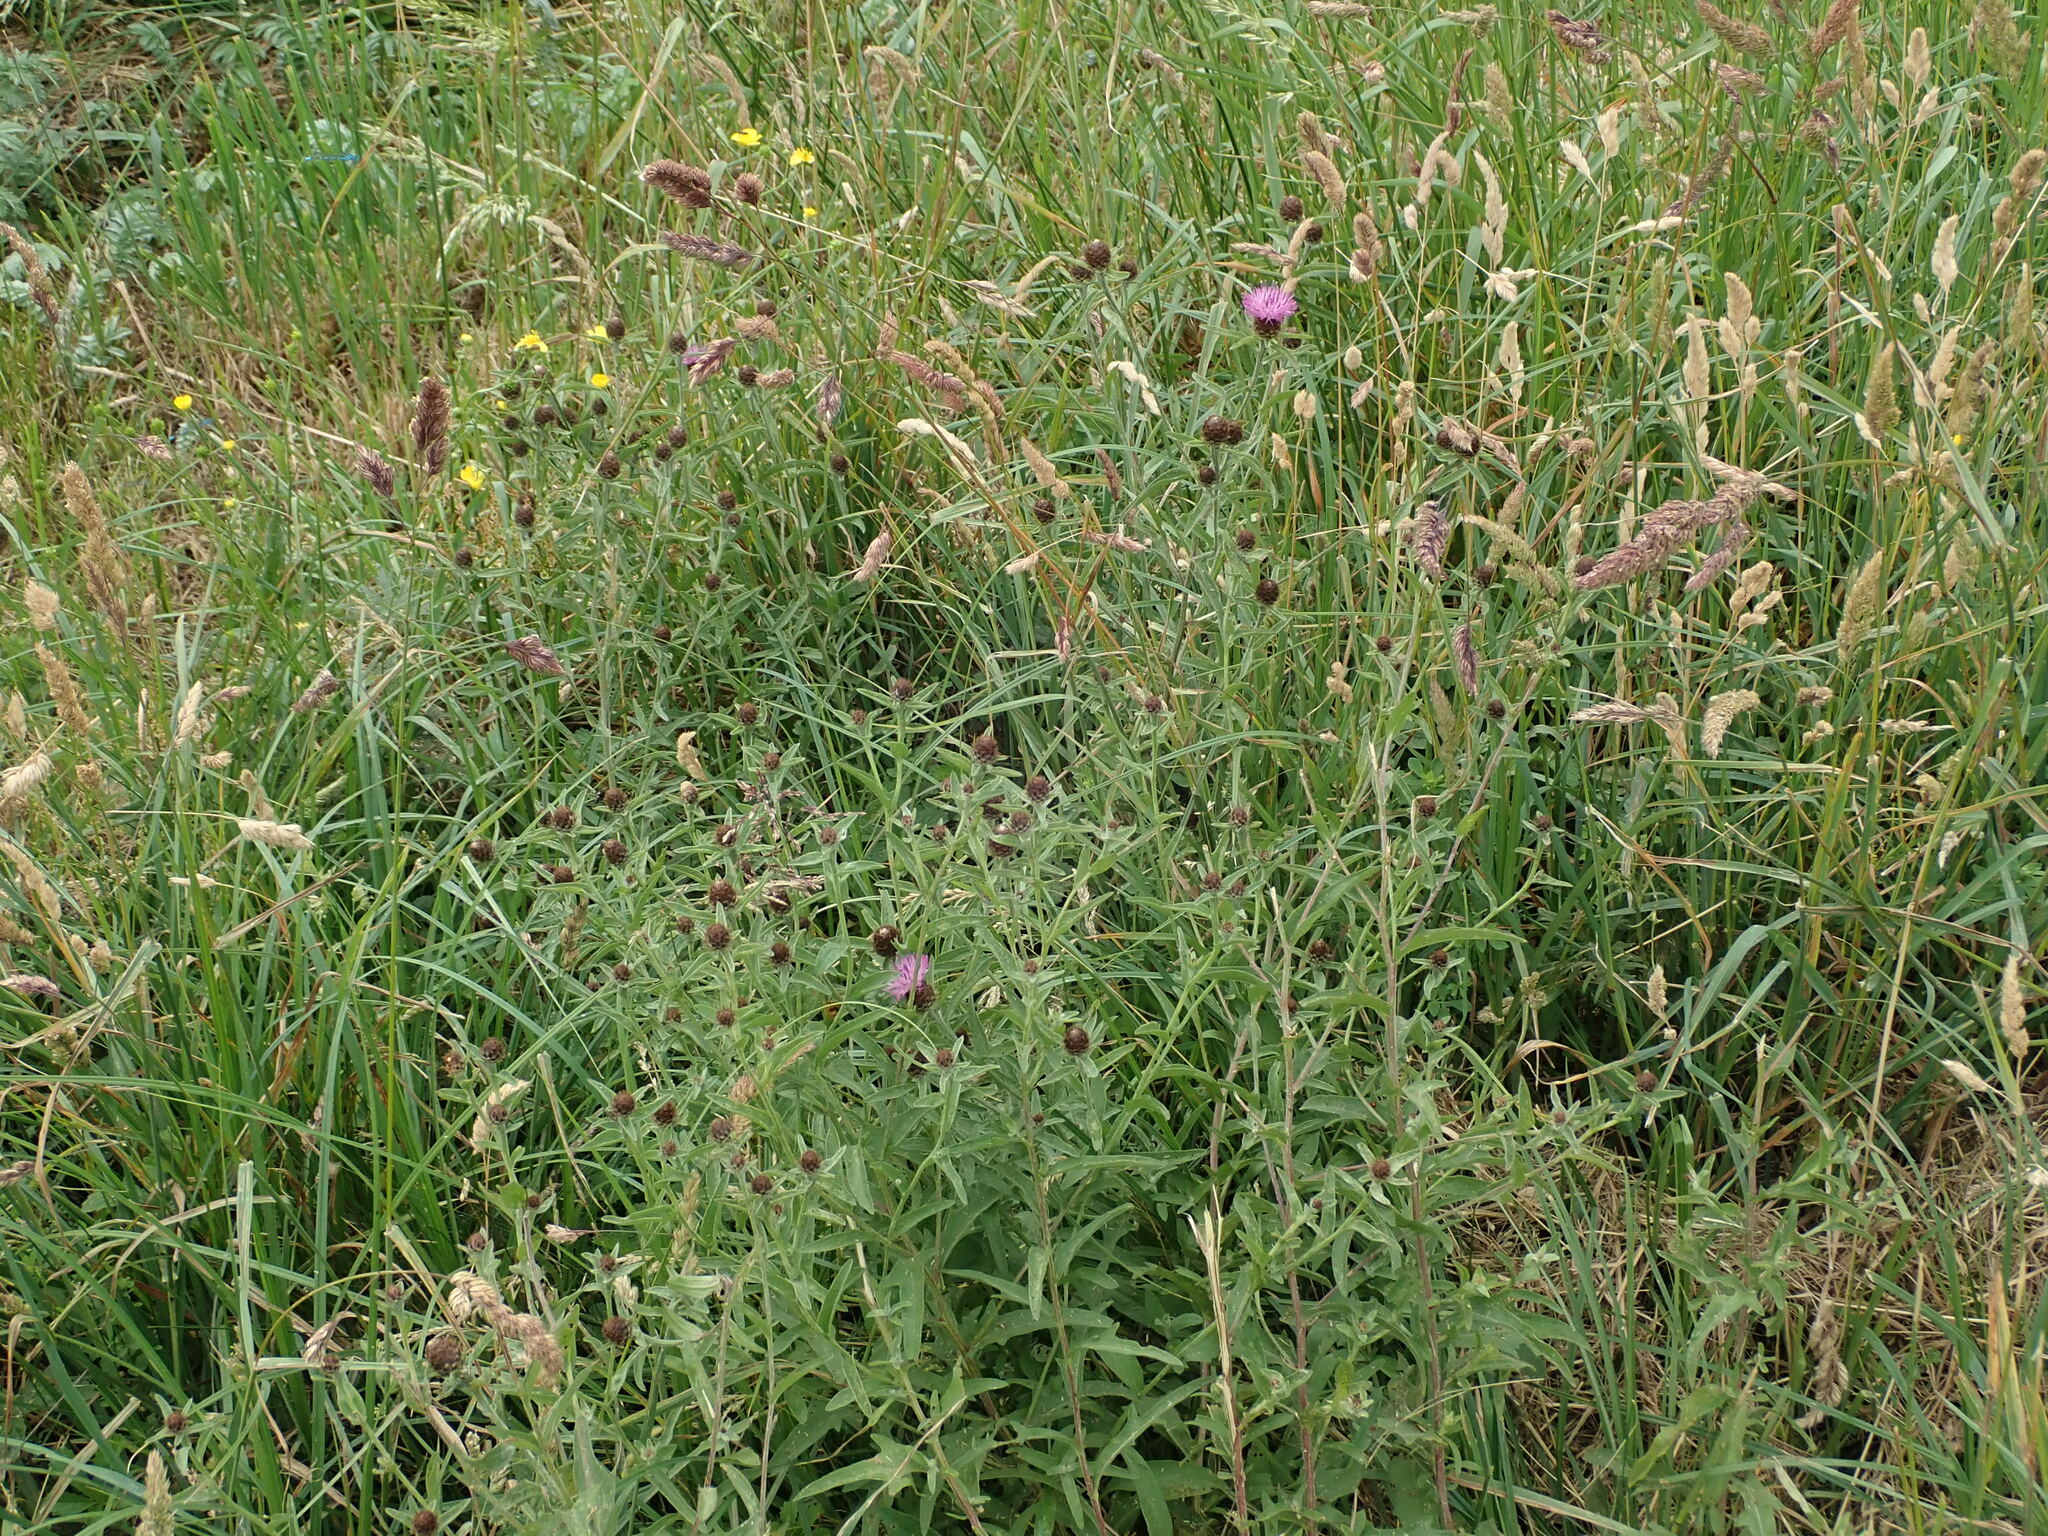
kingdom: Plantae
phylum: Tracheophyta
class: Magnoliopsida
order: Asterales
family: Asteraceae
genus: Centaurea
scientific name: Centaurea debeauxii
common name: Slender knapweed
